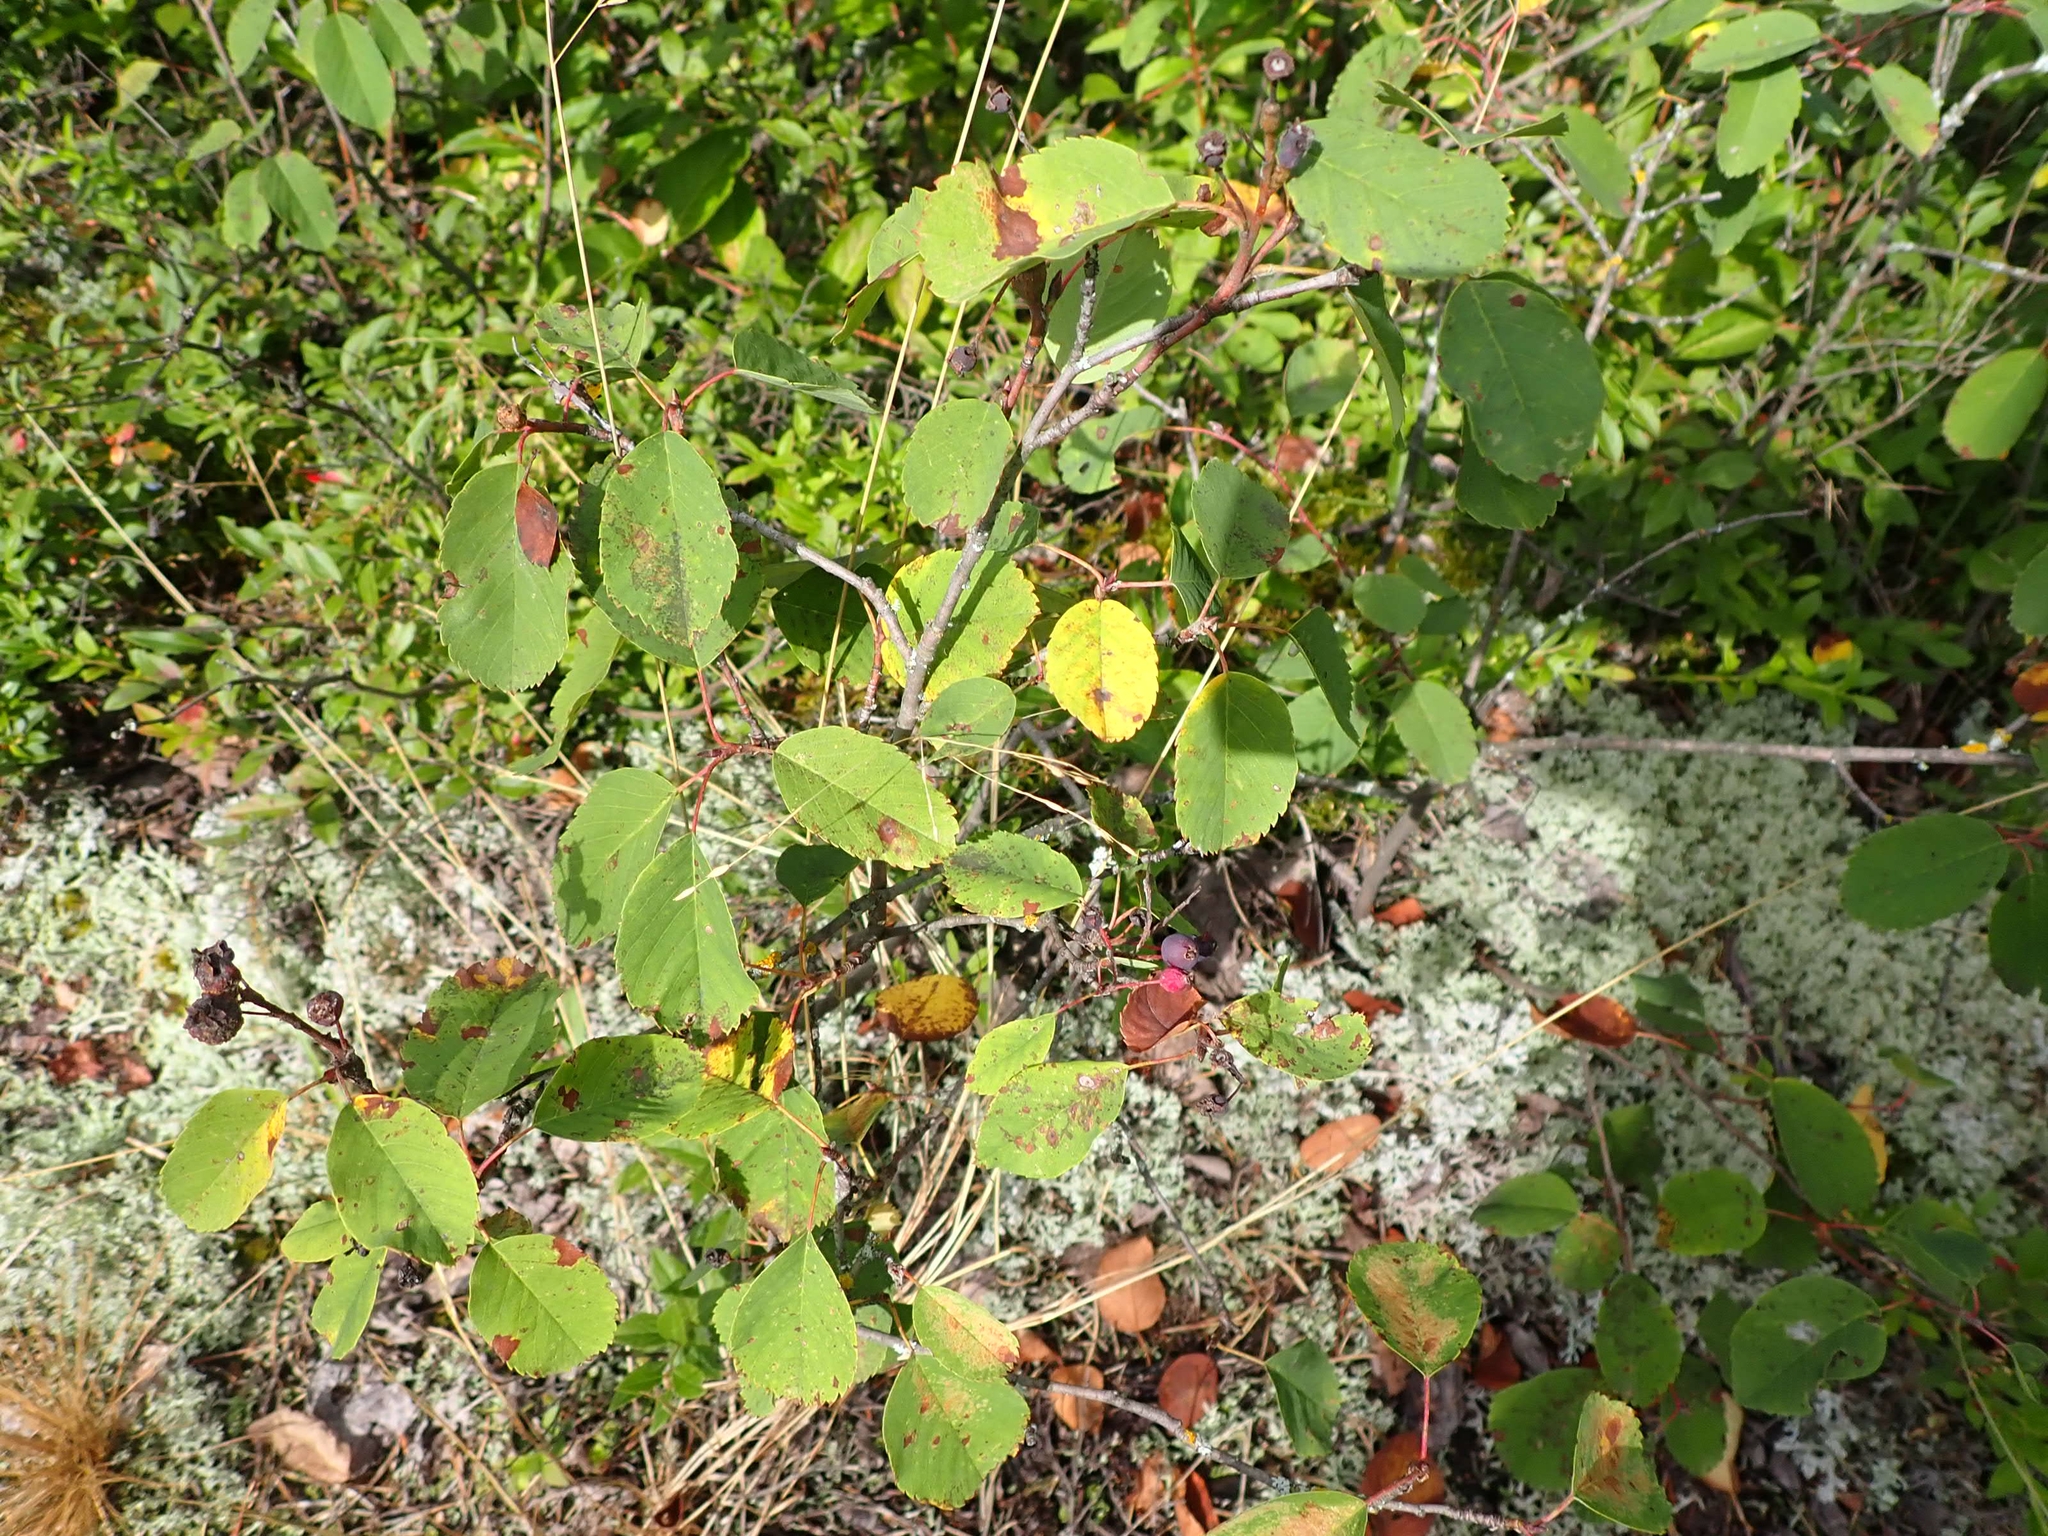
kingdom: Plantae
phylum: Tracheophyta
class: Magnoliopsida
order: Rosales
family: Rosaceae
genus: Amelanchier
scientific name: Amelanchier alnifolia
